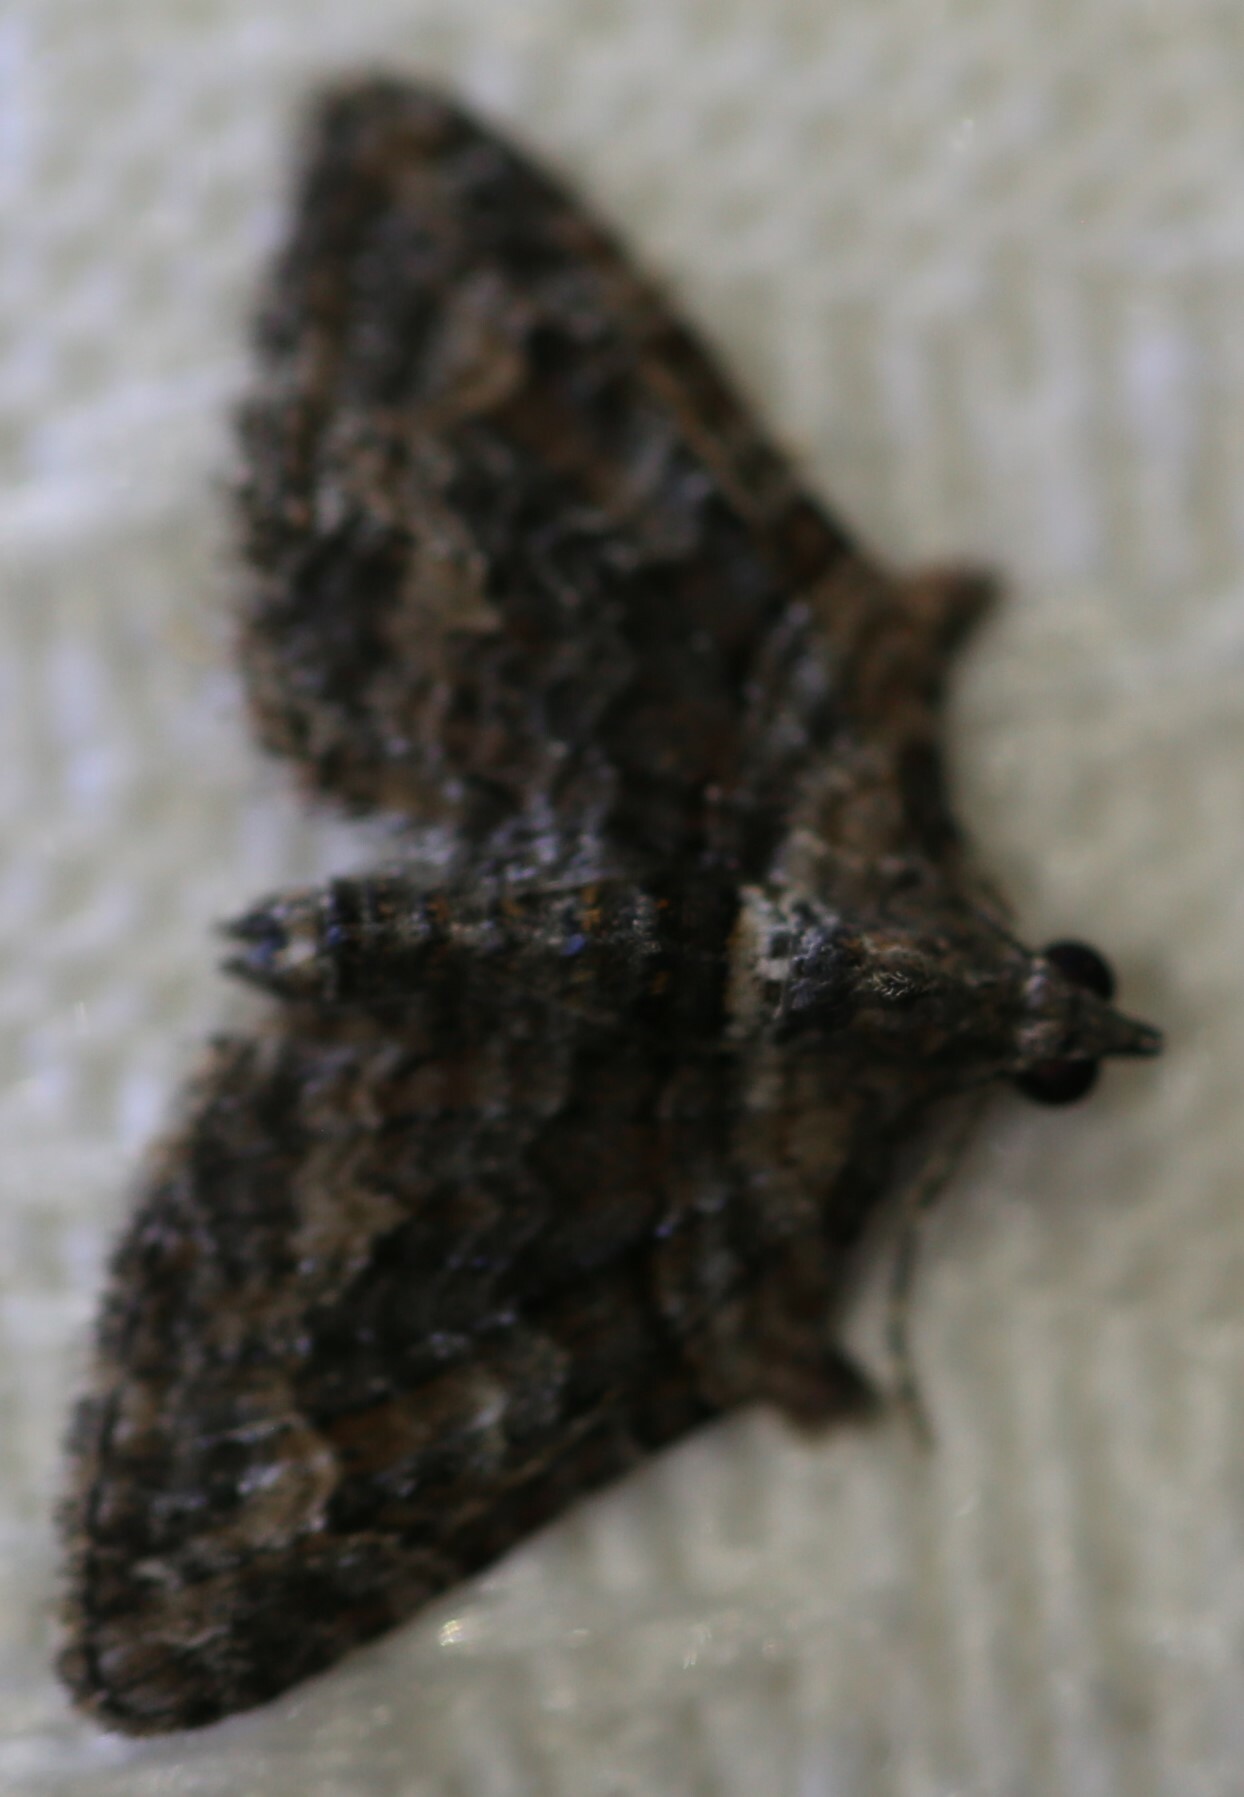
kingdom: Animalia
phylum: Arthropoda
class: Insecta
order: Lepidoptera
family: Geometridae
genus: Phrissogonus
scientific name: Phrissogonus laticostata
